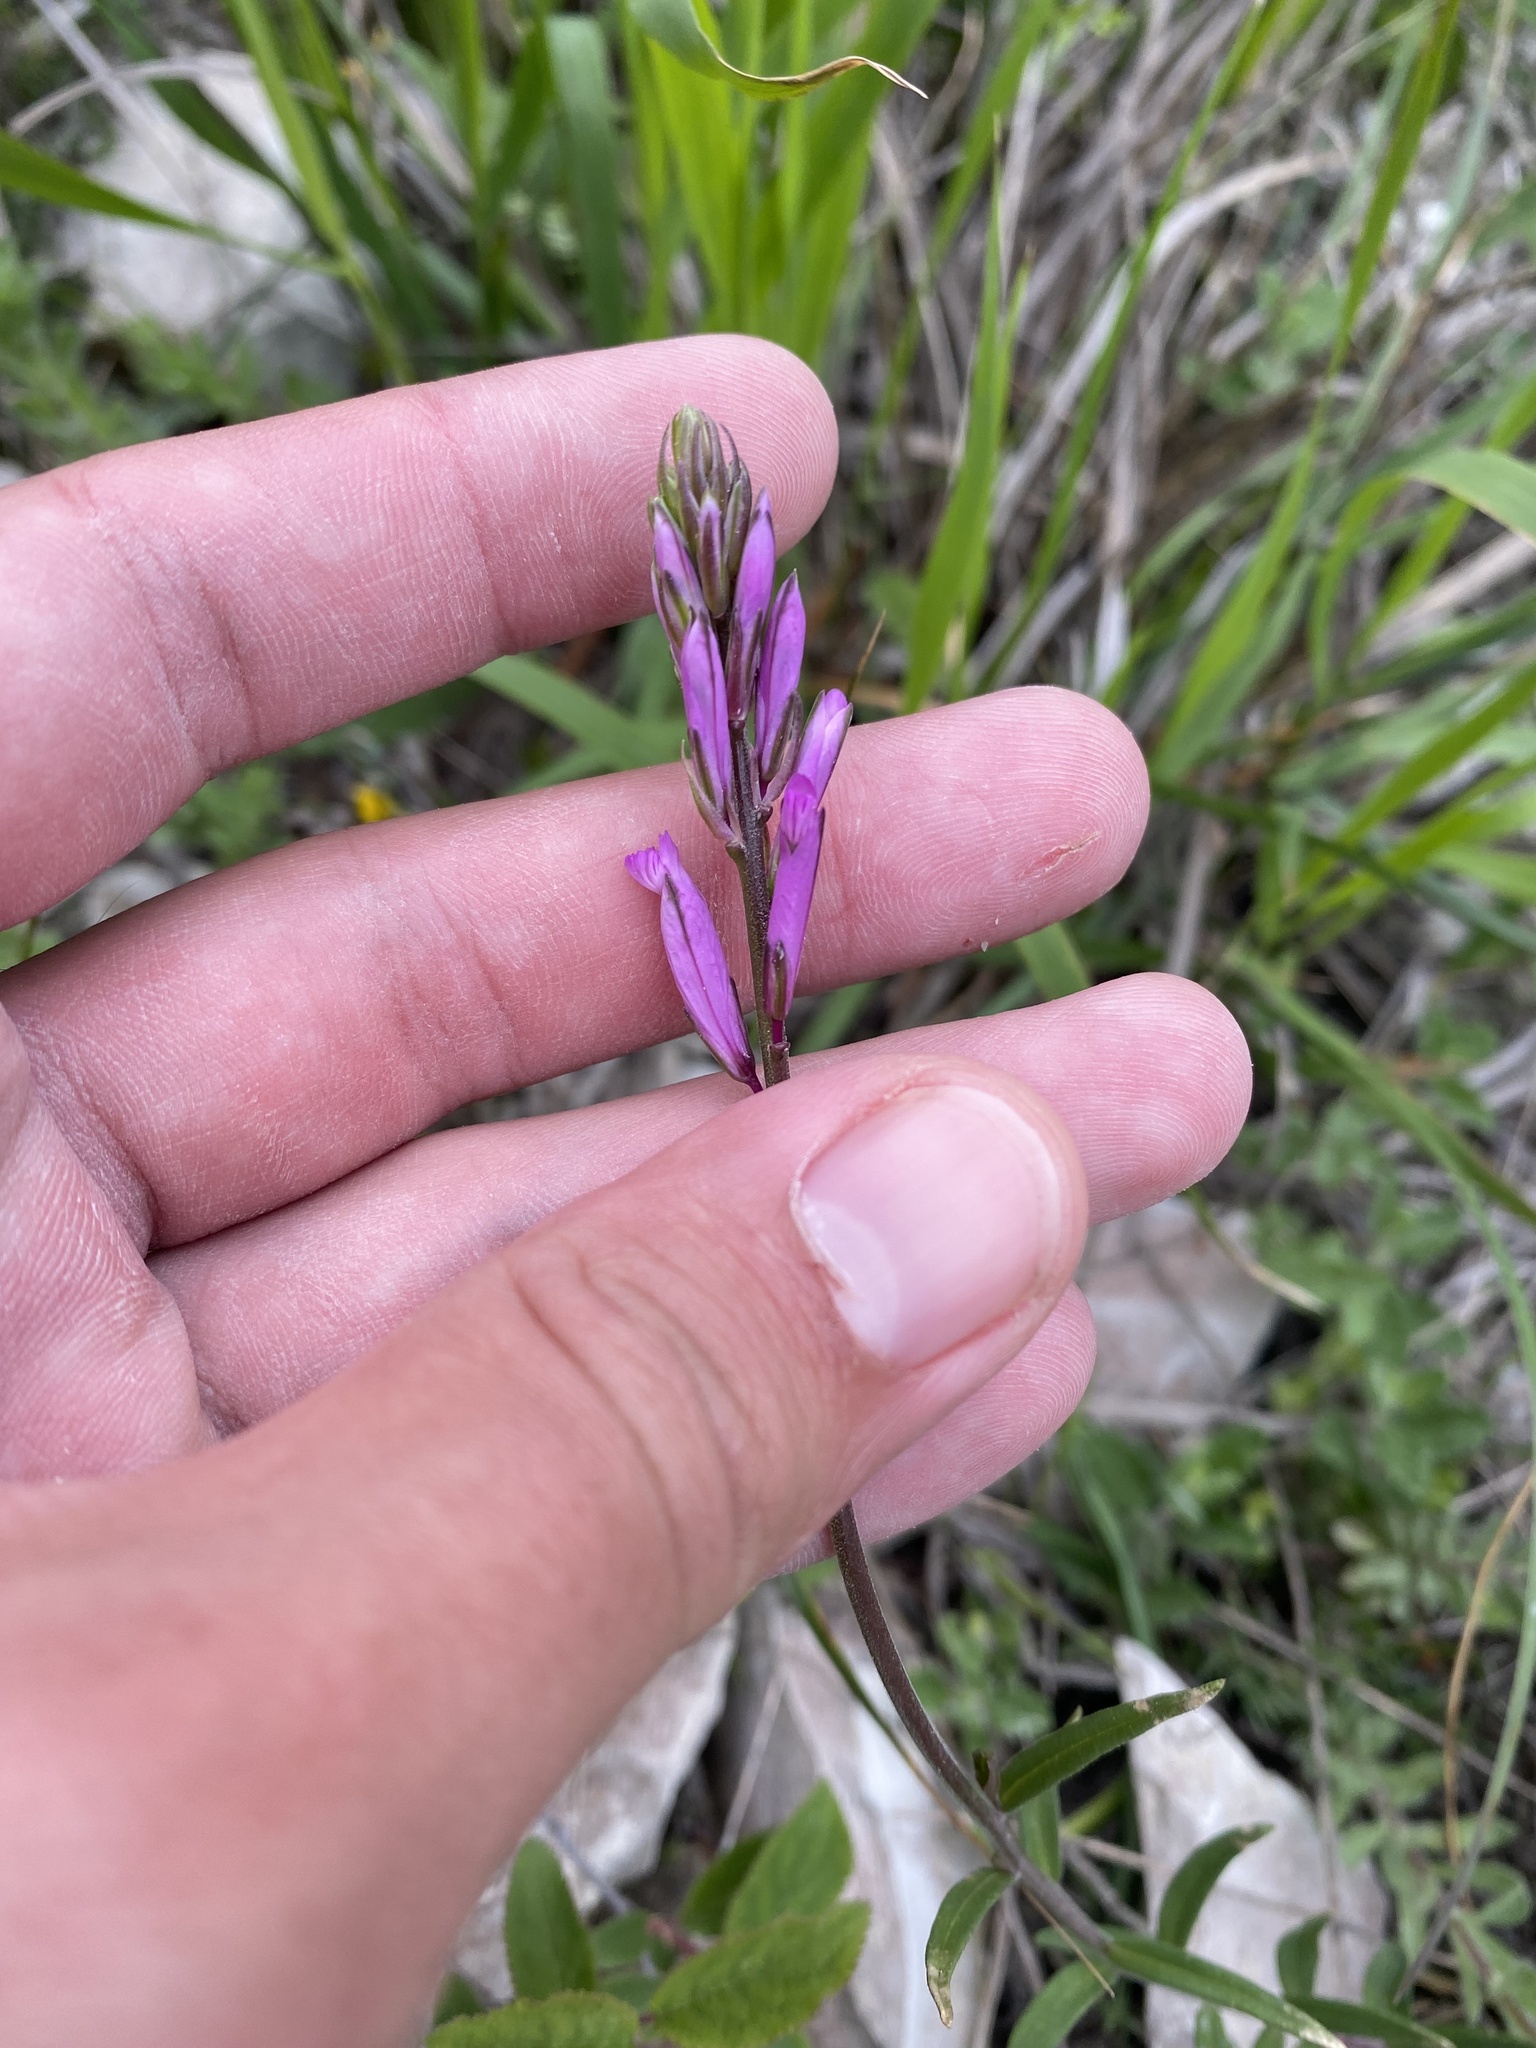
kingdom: Plantae
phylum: Tracheophyta
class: Magnoliopsida
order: Fabales
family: Polygalaceae
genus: Polygala
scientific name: Polygala major
